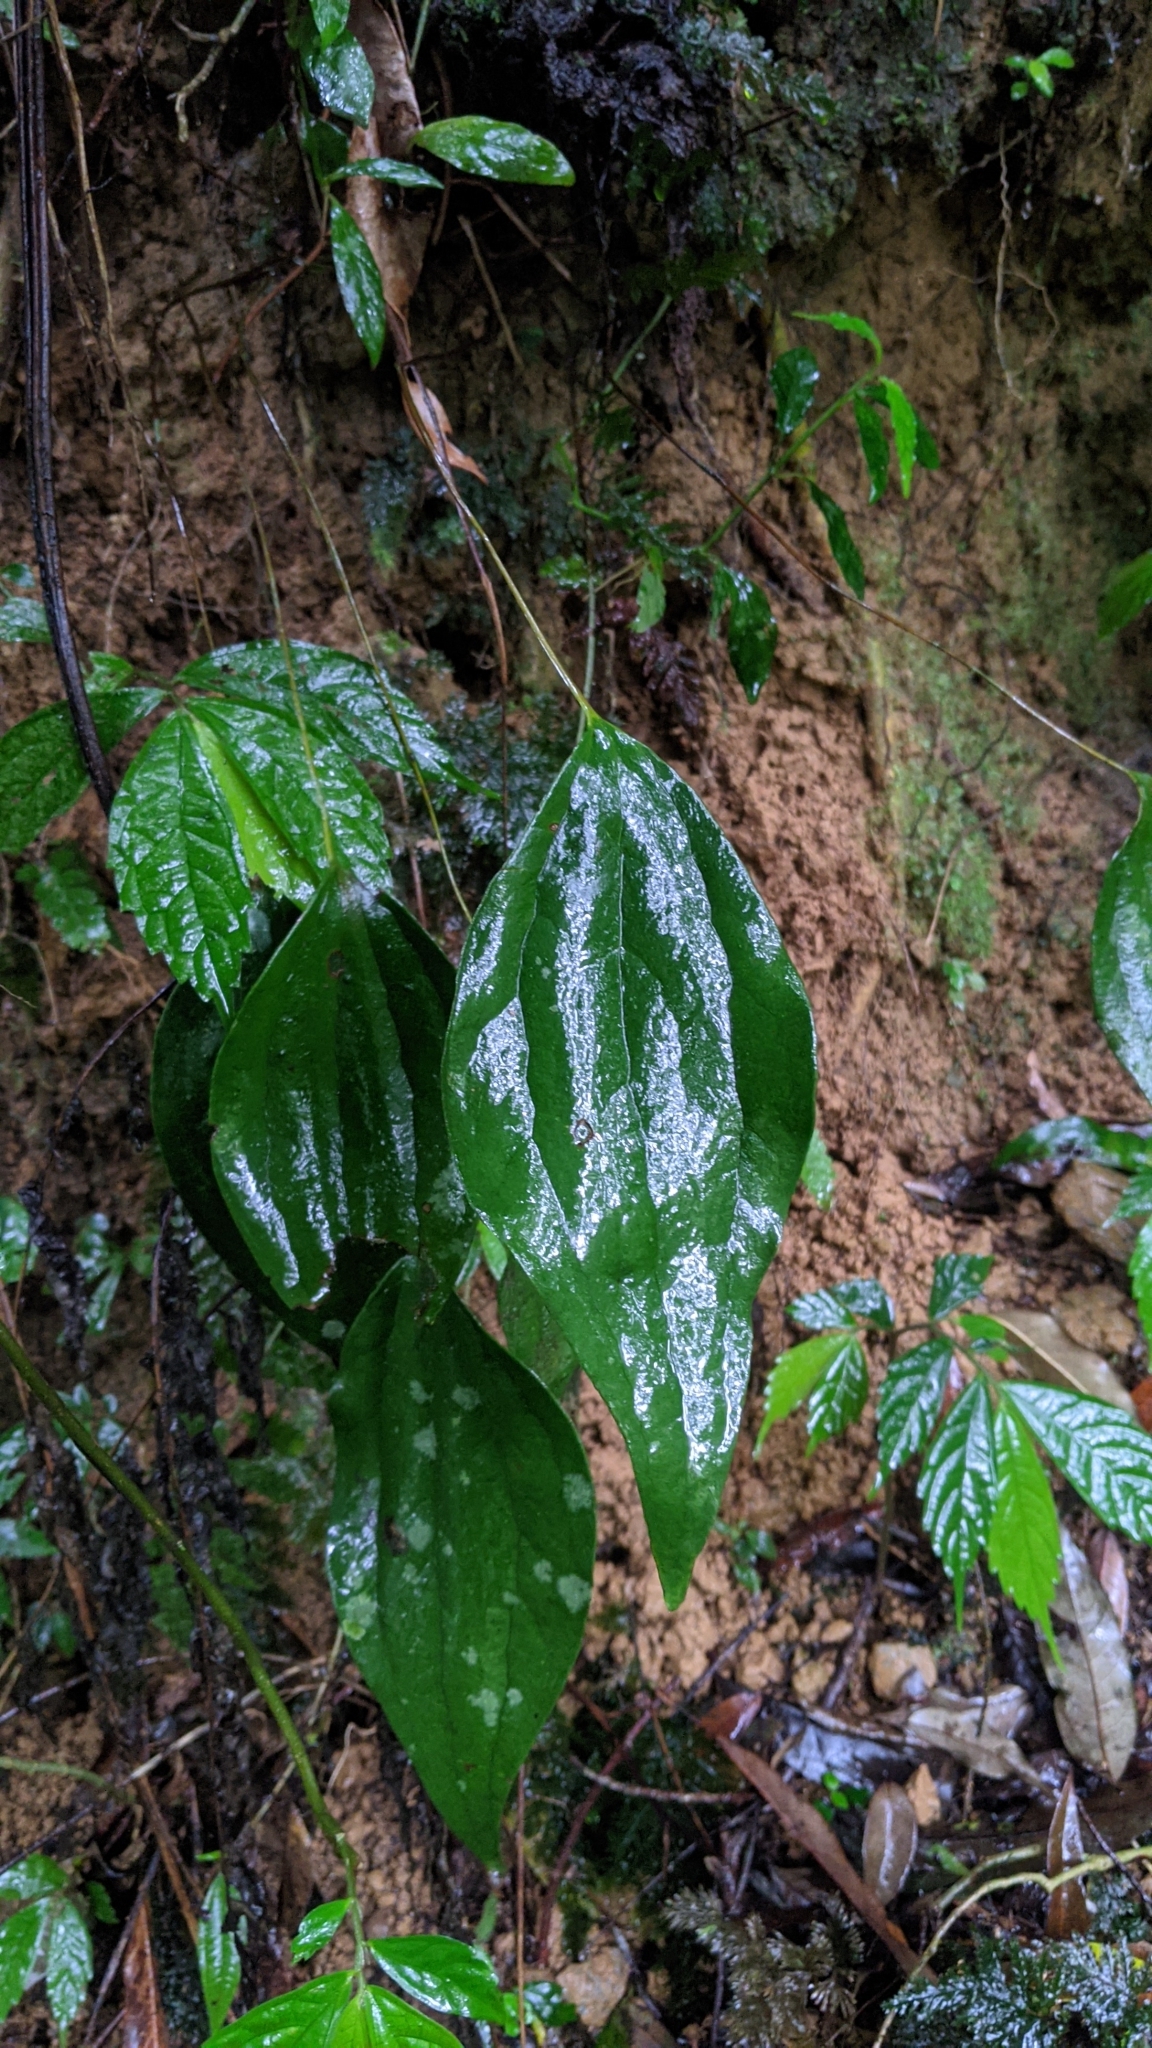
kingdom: Plantae
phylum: Tracheophyta
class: Polypodiopsida
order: Gleicheniales
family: Dipteridaceae
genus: Cheiropleuria
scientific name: Cheiropleuria integrifolia
